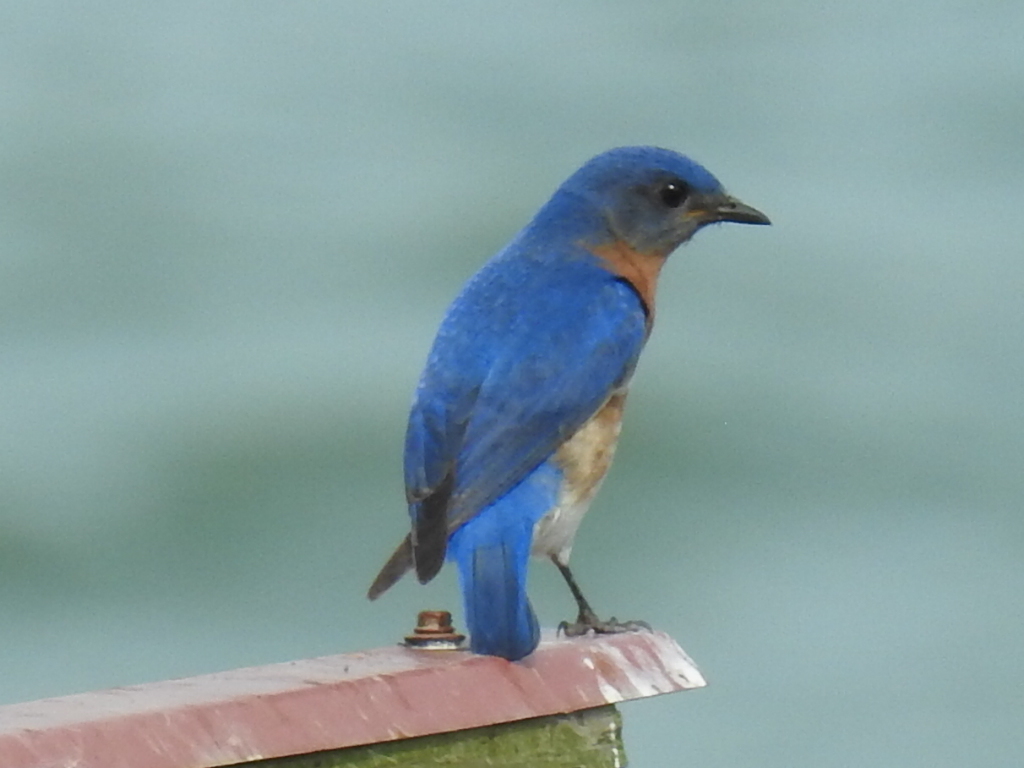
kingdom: Animalia
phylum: Chordata
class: Aves
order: Passeriformes
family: Turdidae
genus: Sialia
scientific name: Sialia sialis
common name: Eastern bluebird
